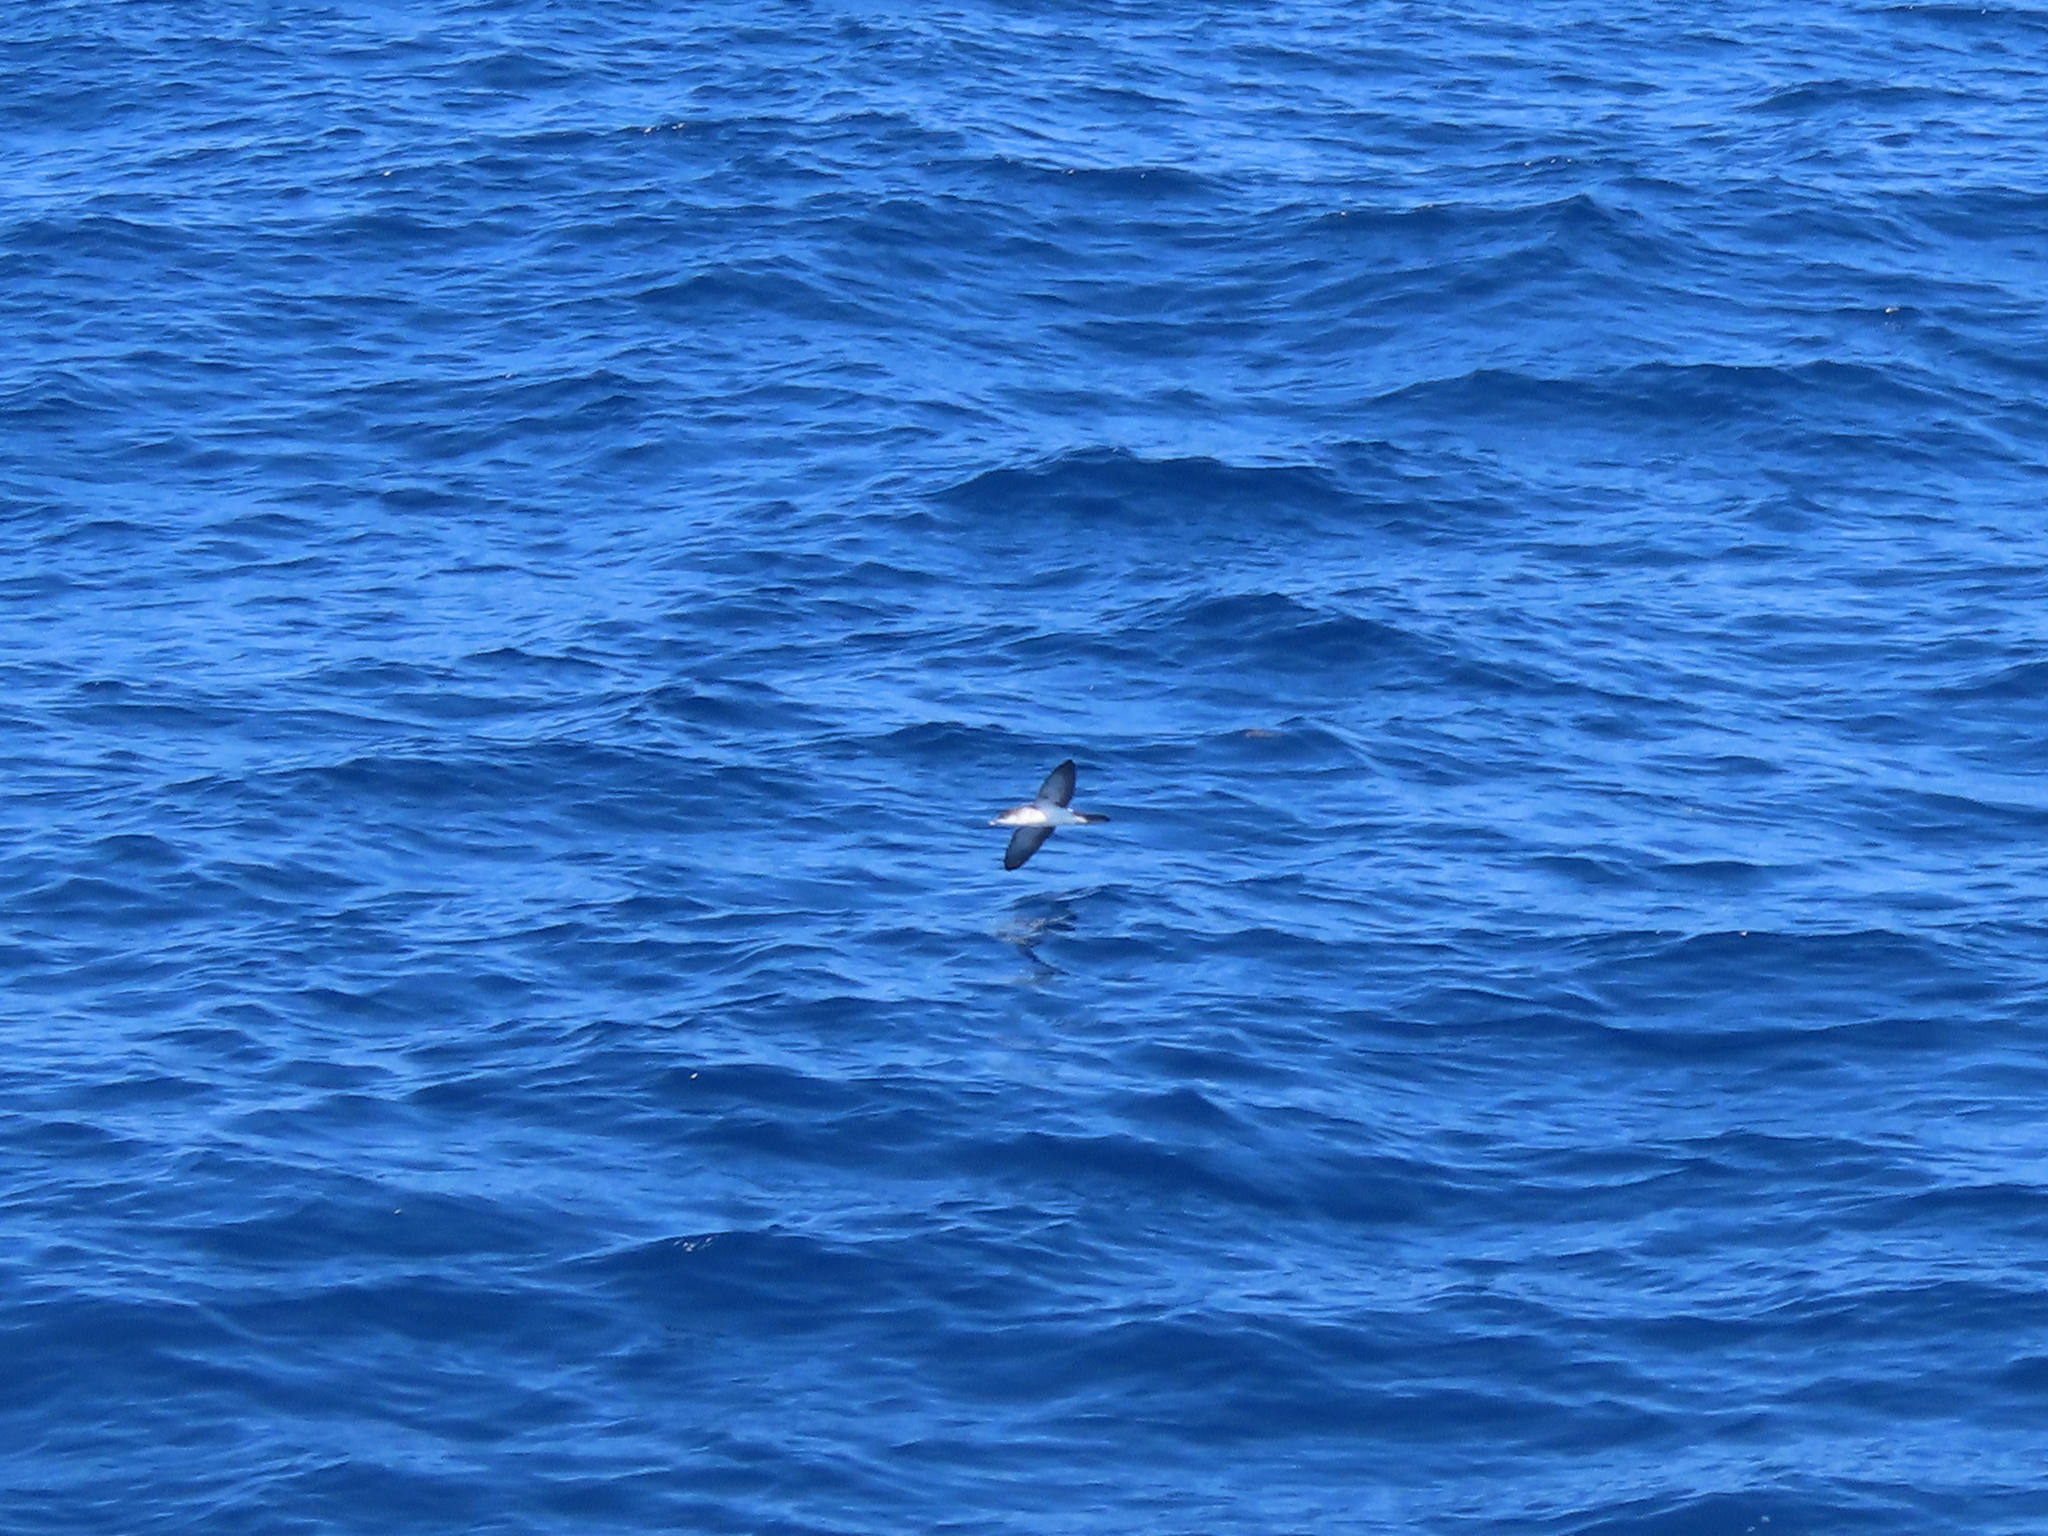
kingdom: Animalia
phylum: Chordata
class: Aves
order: Procellariiformes
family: Procellariidae
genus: Puffinus
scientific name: Puffinus lherminieri
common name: Audubon's shearwater
